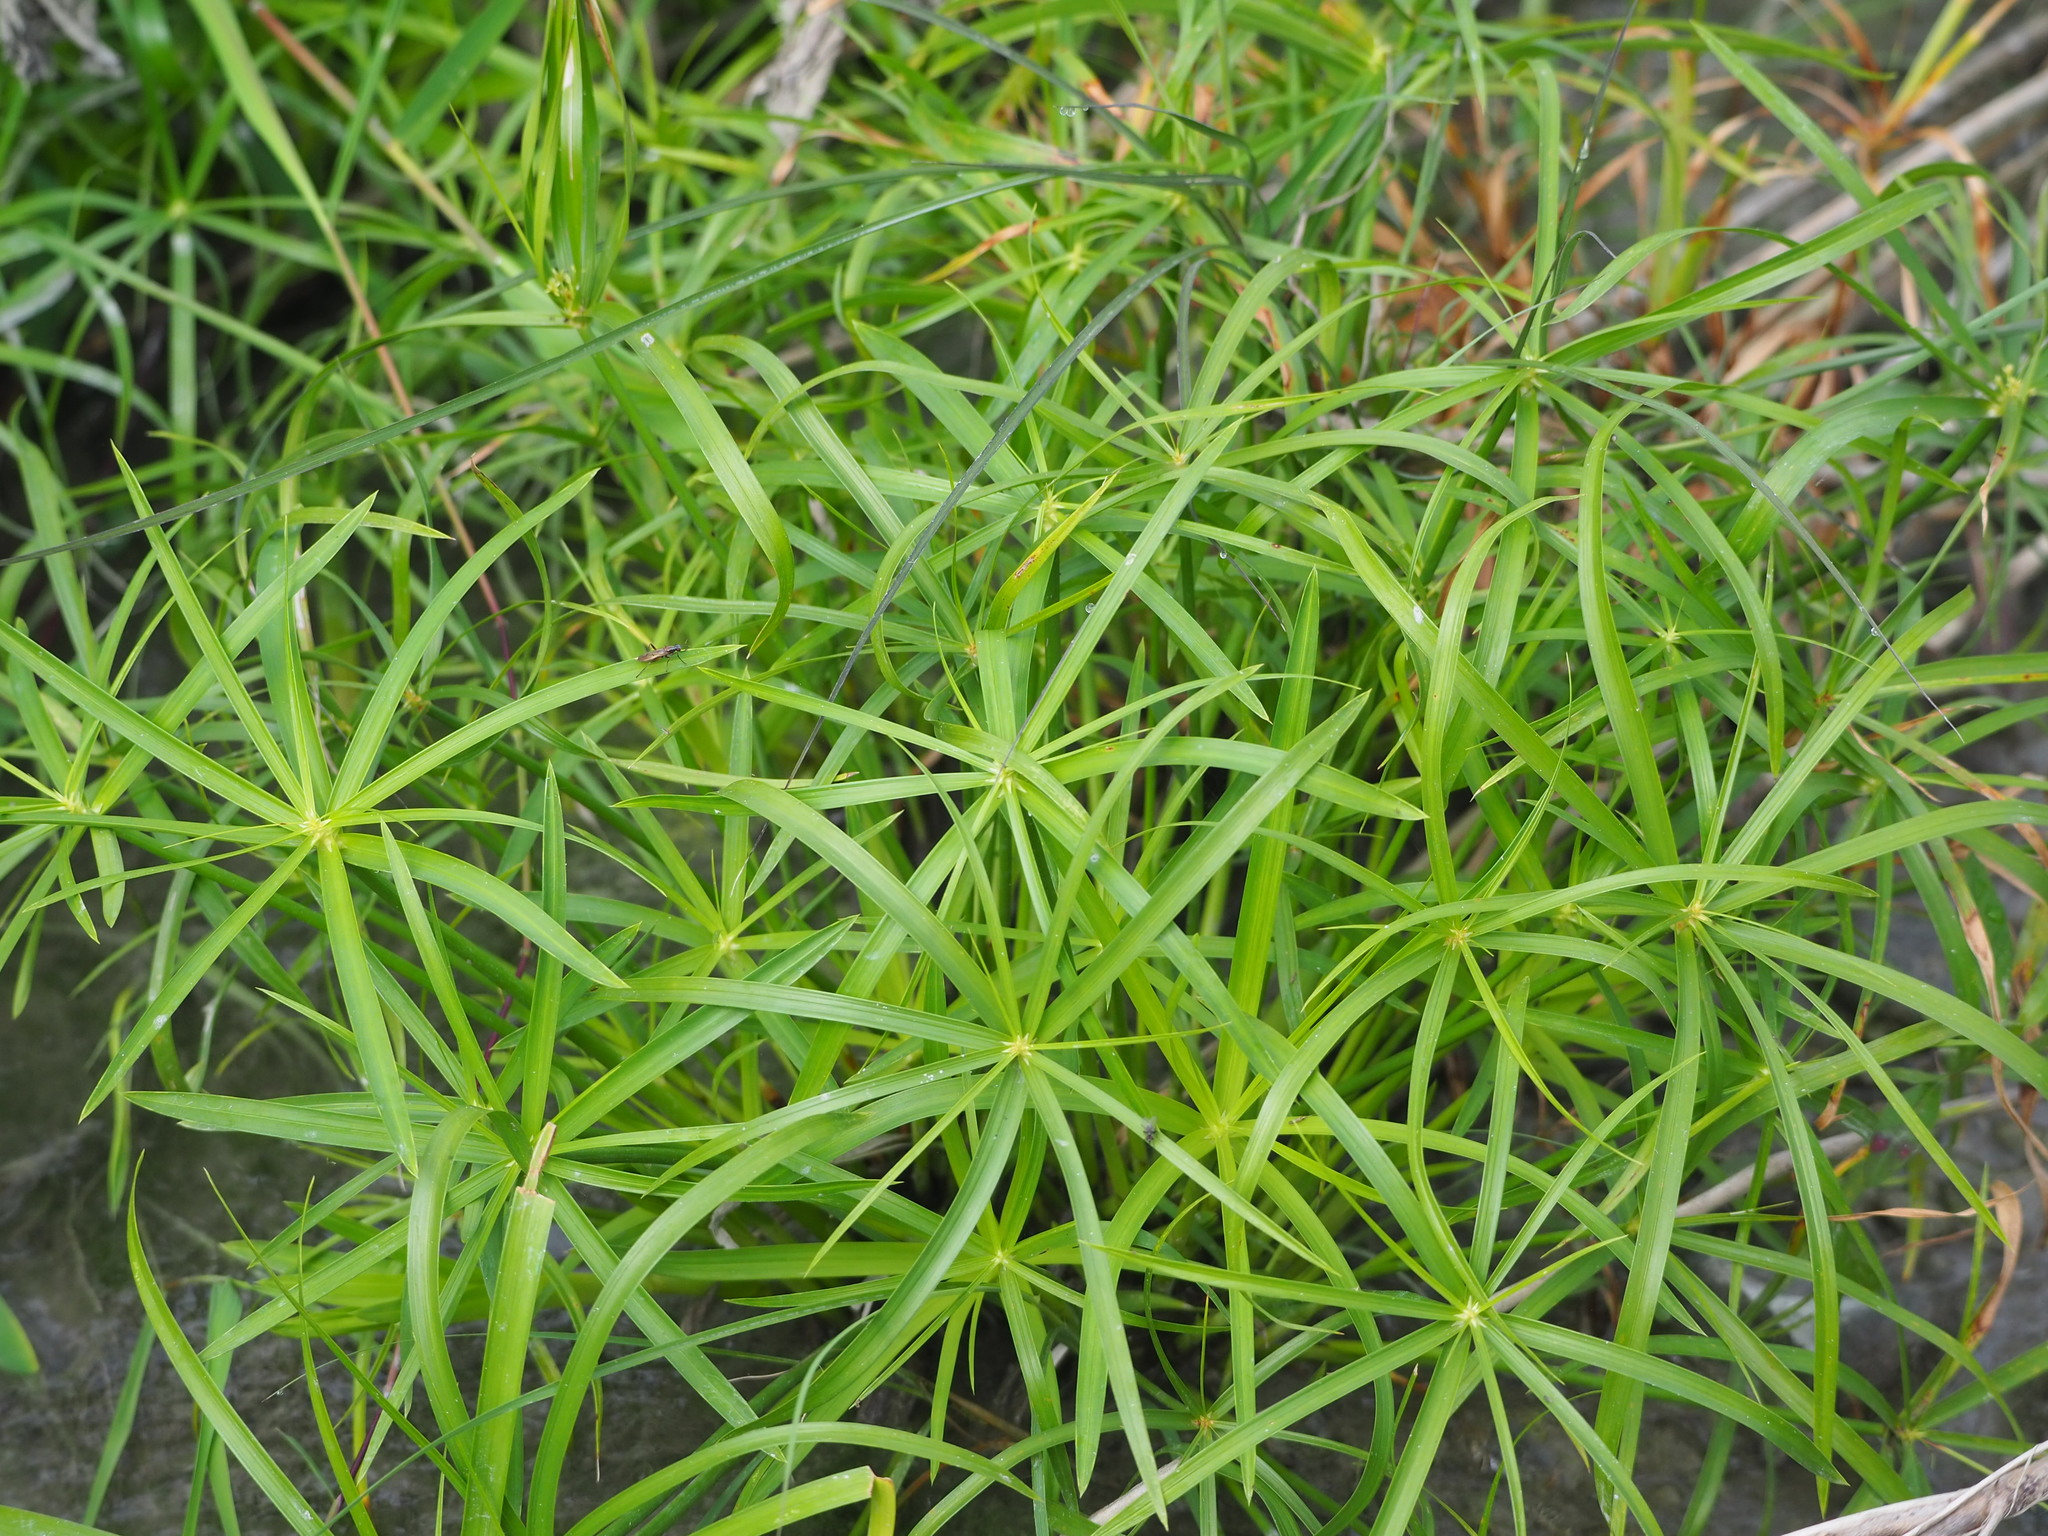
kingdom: Plantae
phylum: Tracheophyta
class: Liliopsida
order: Poales
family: Cyperaceae
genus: Cyperus
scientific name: Cyperus alternifolius
